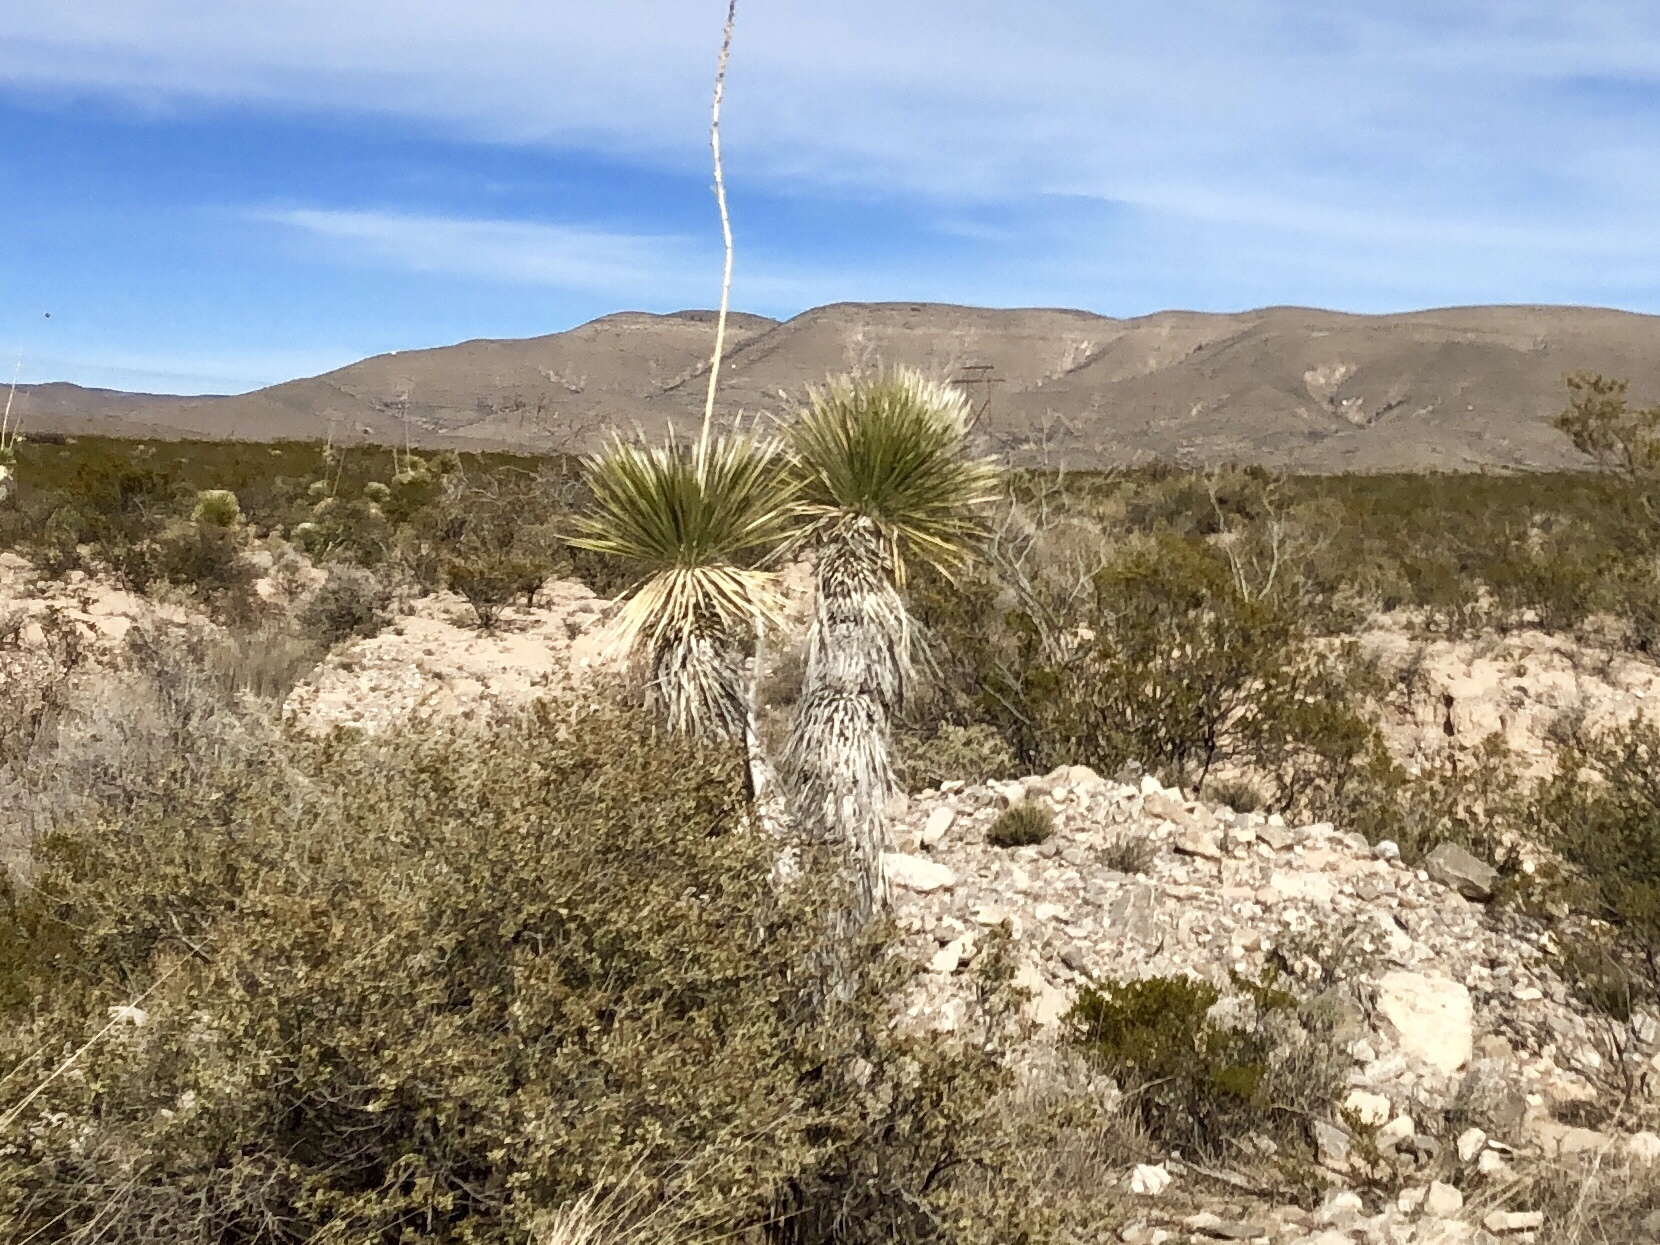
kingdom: Plantae
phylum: Tracheophyta
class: Liliopsida
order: Asparagales
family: Asparagaceae
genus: Yucca
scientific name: Yucca elata
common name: Palmella
